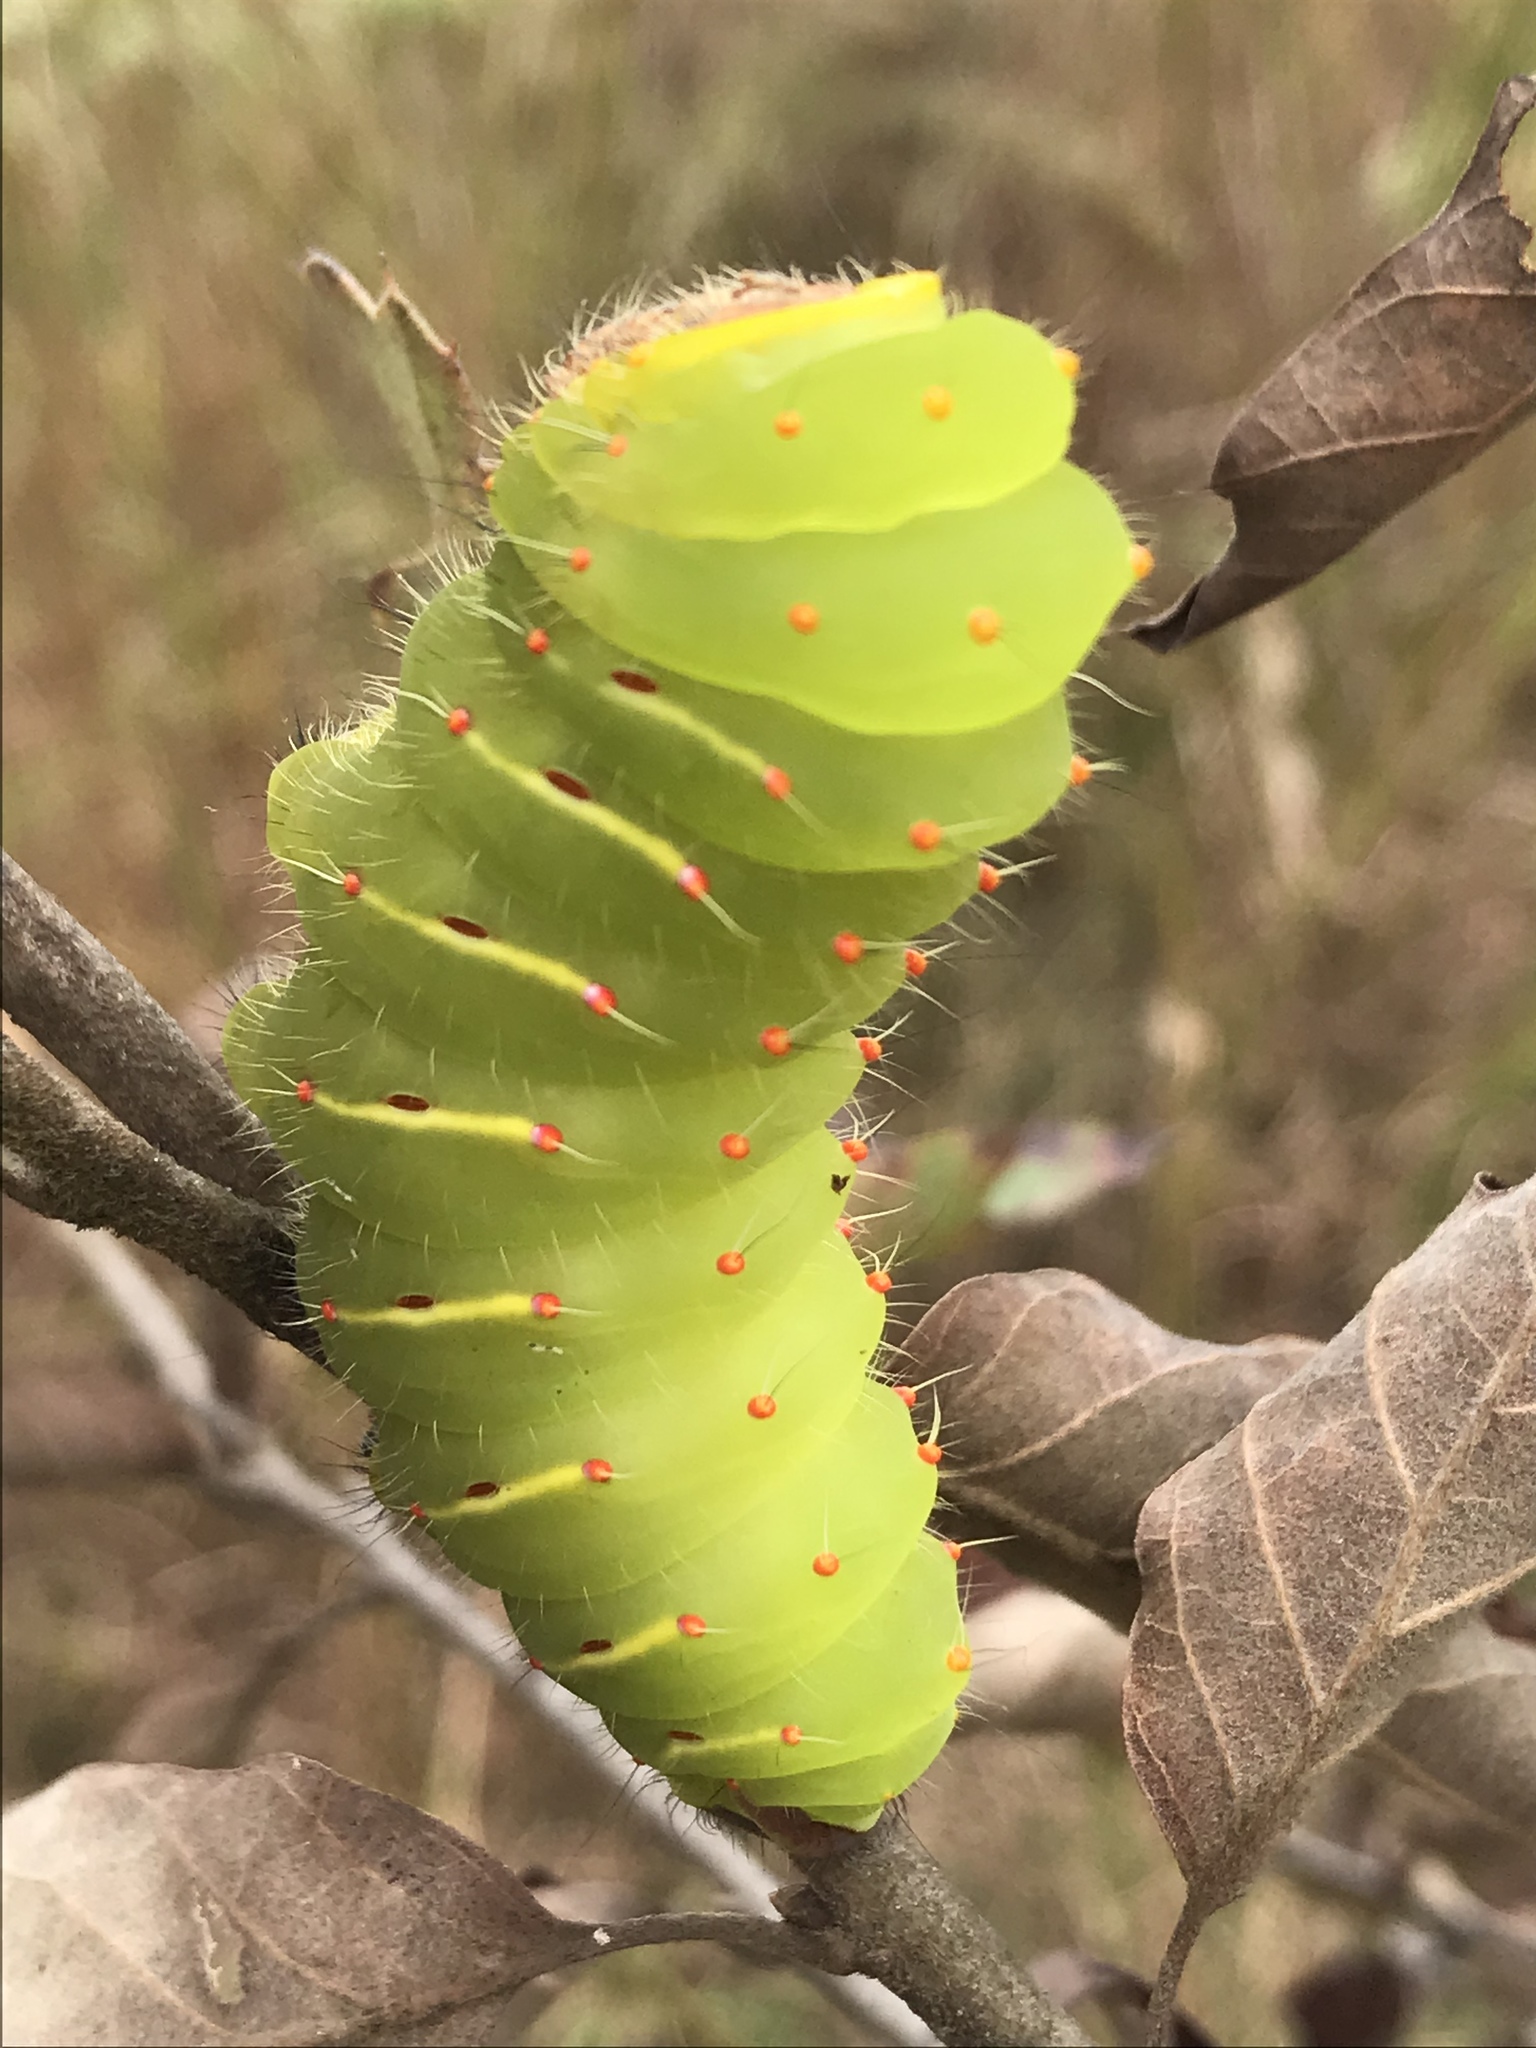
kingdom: Animalia
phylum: Arthropoda
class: Insecta
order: Lepidoptera
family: Saturniidae
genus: Antheraea
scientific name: Antheraea polyphemus
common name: Polyphemus moth
